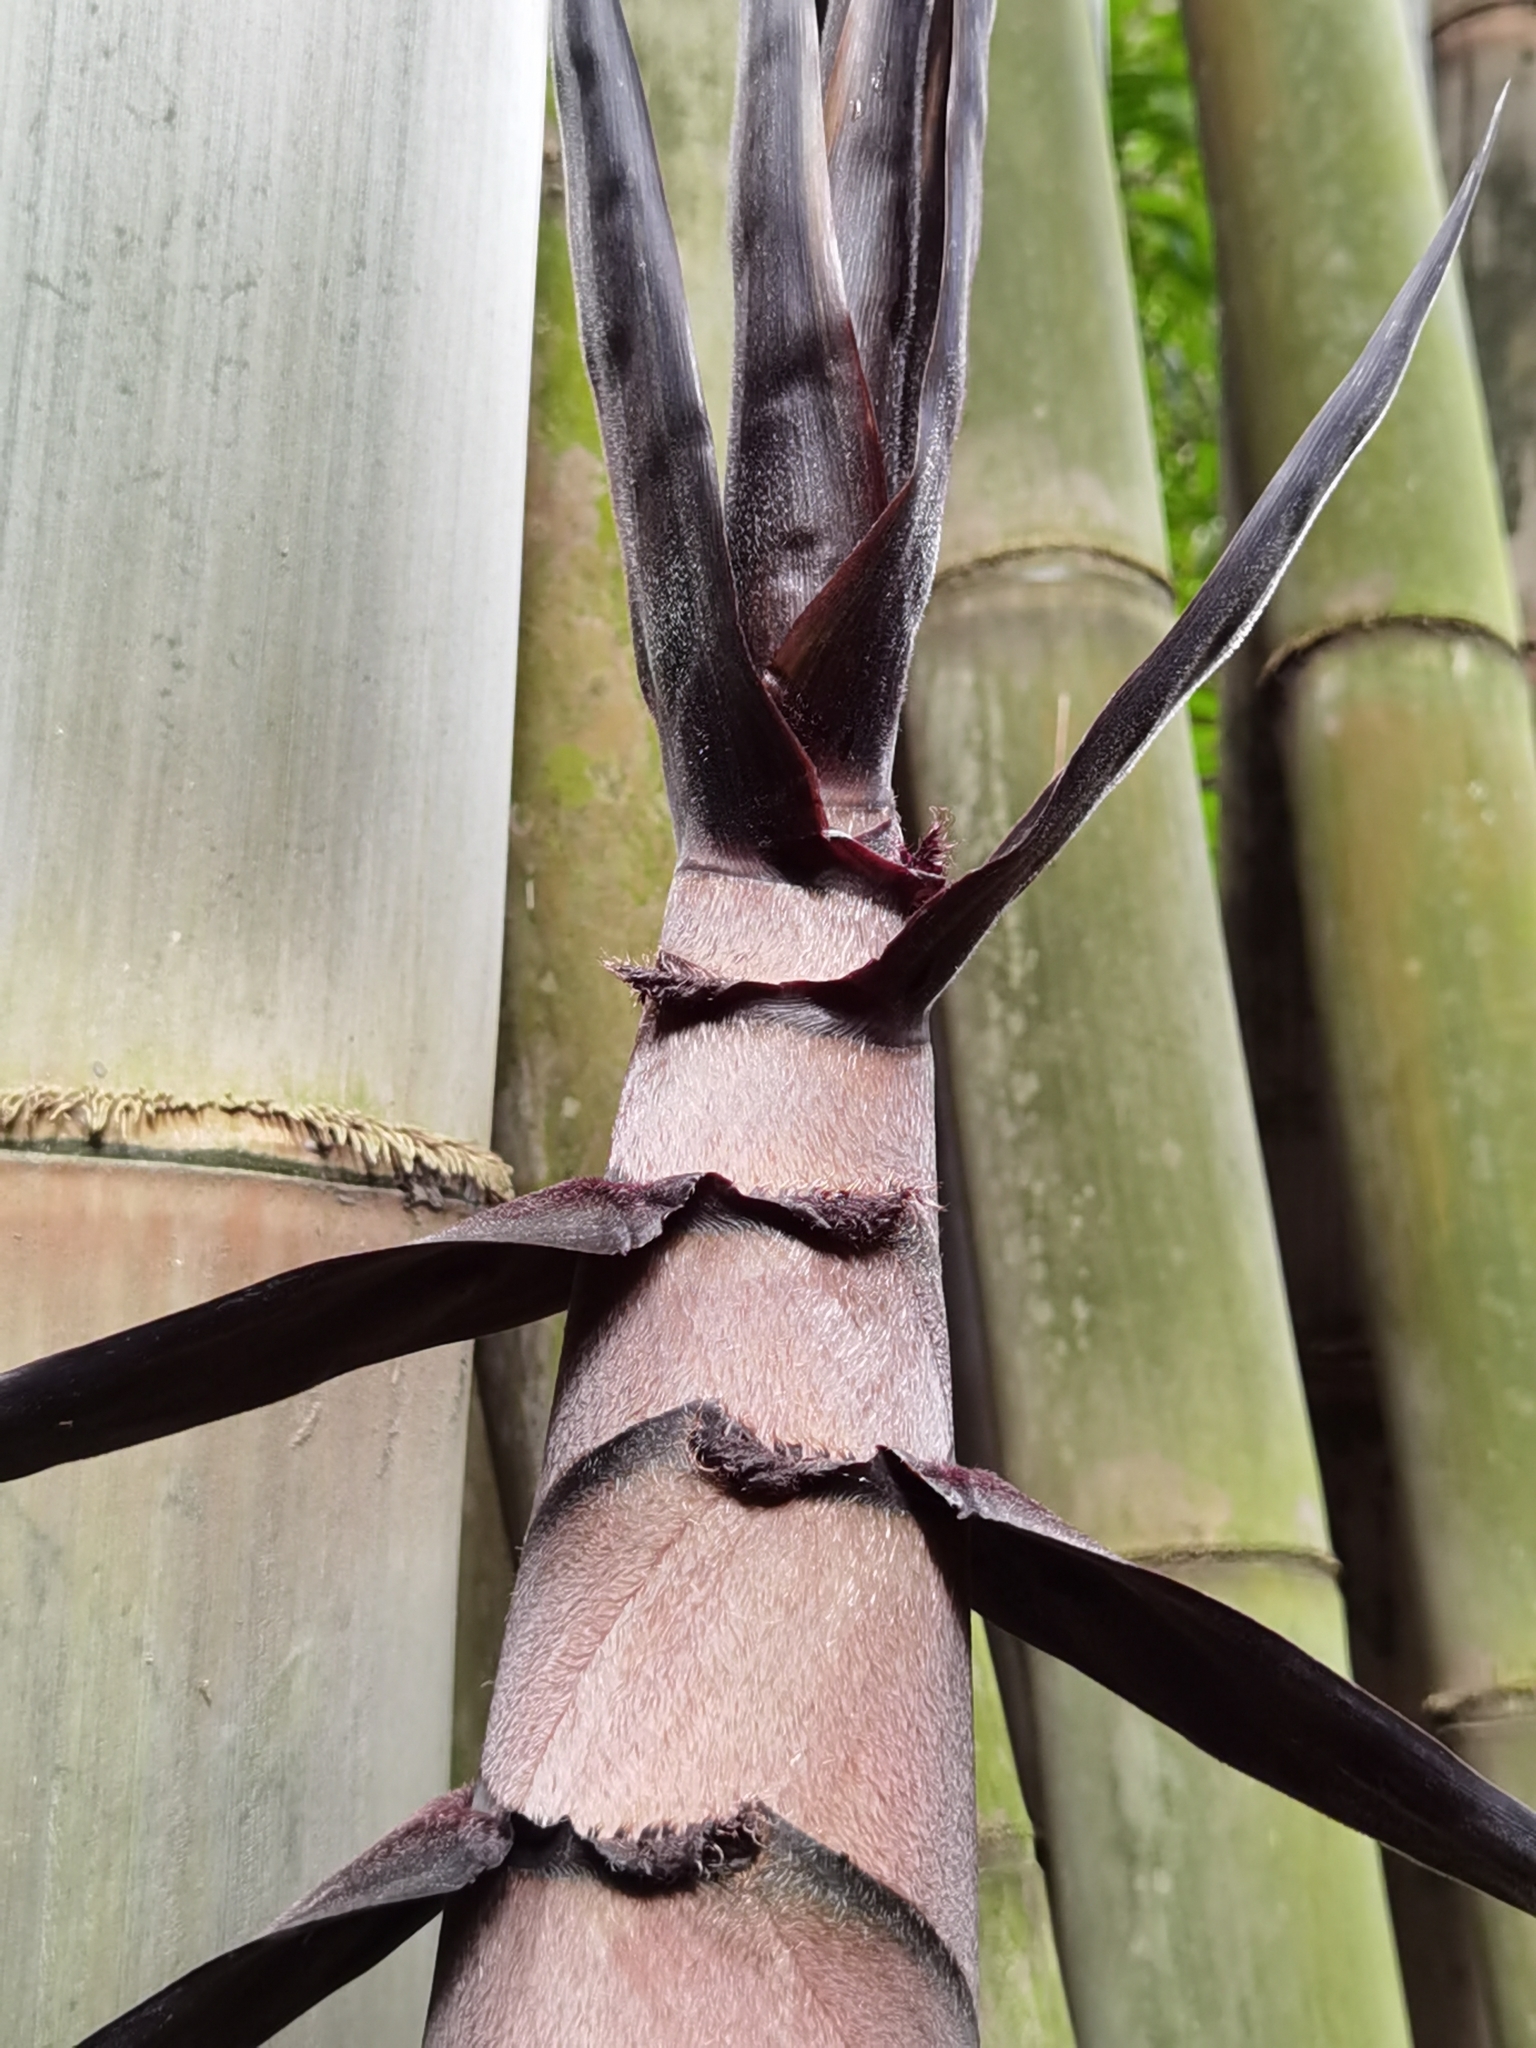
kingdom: Plantae
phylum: Tracheophyta
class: Liliopsida
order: Poales
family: Poaceae
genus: Dendrocalamus
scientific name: Dendrocalamus asper
